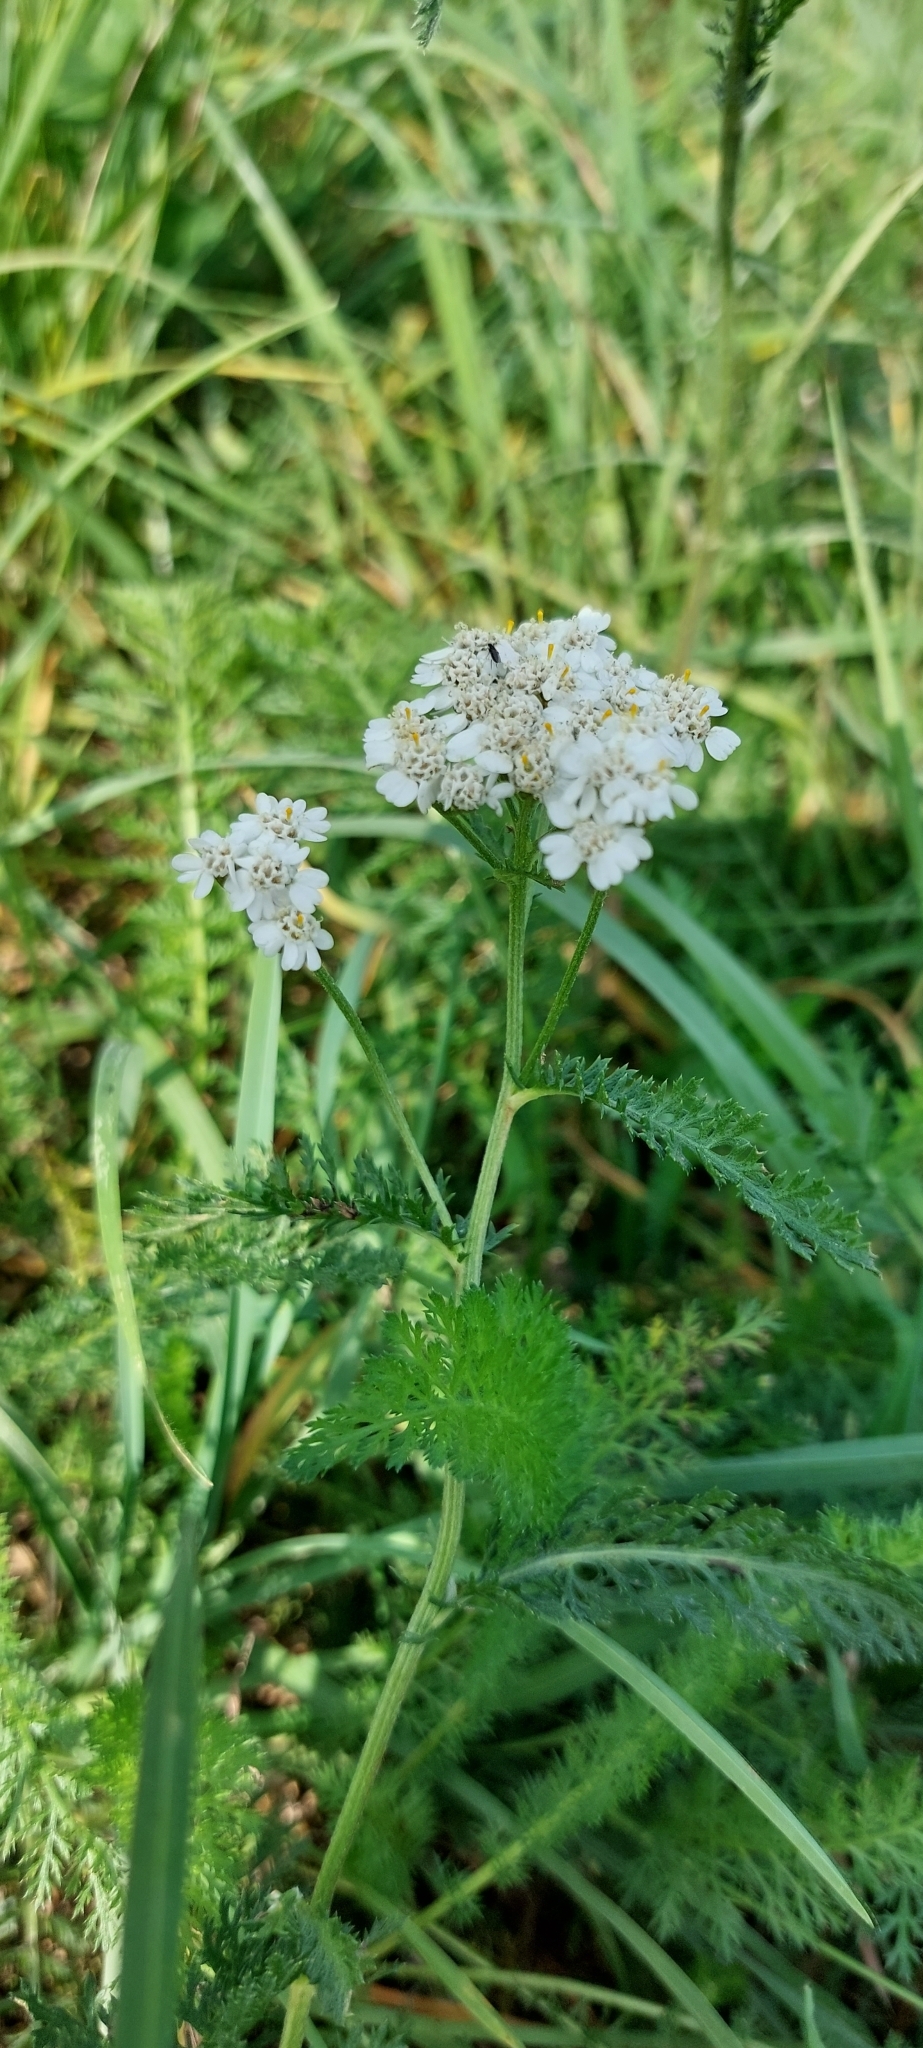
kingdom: Plantae
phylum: Tracheophyta
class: Magnoliopsida
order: Asterales
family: Asteraceae
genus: Achillea
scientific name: Achillea millefolium
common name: Yarrow
